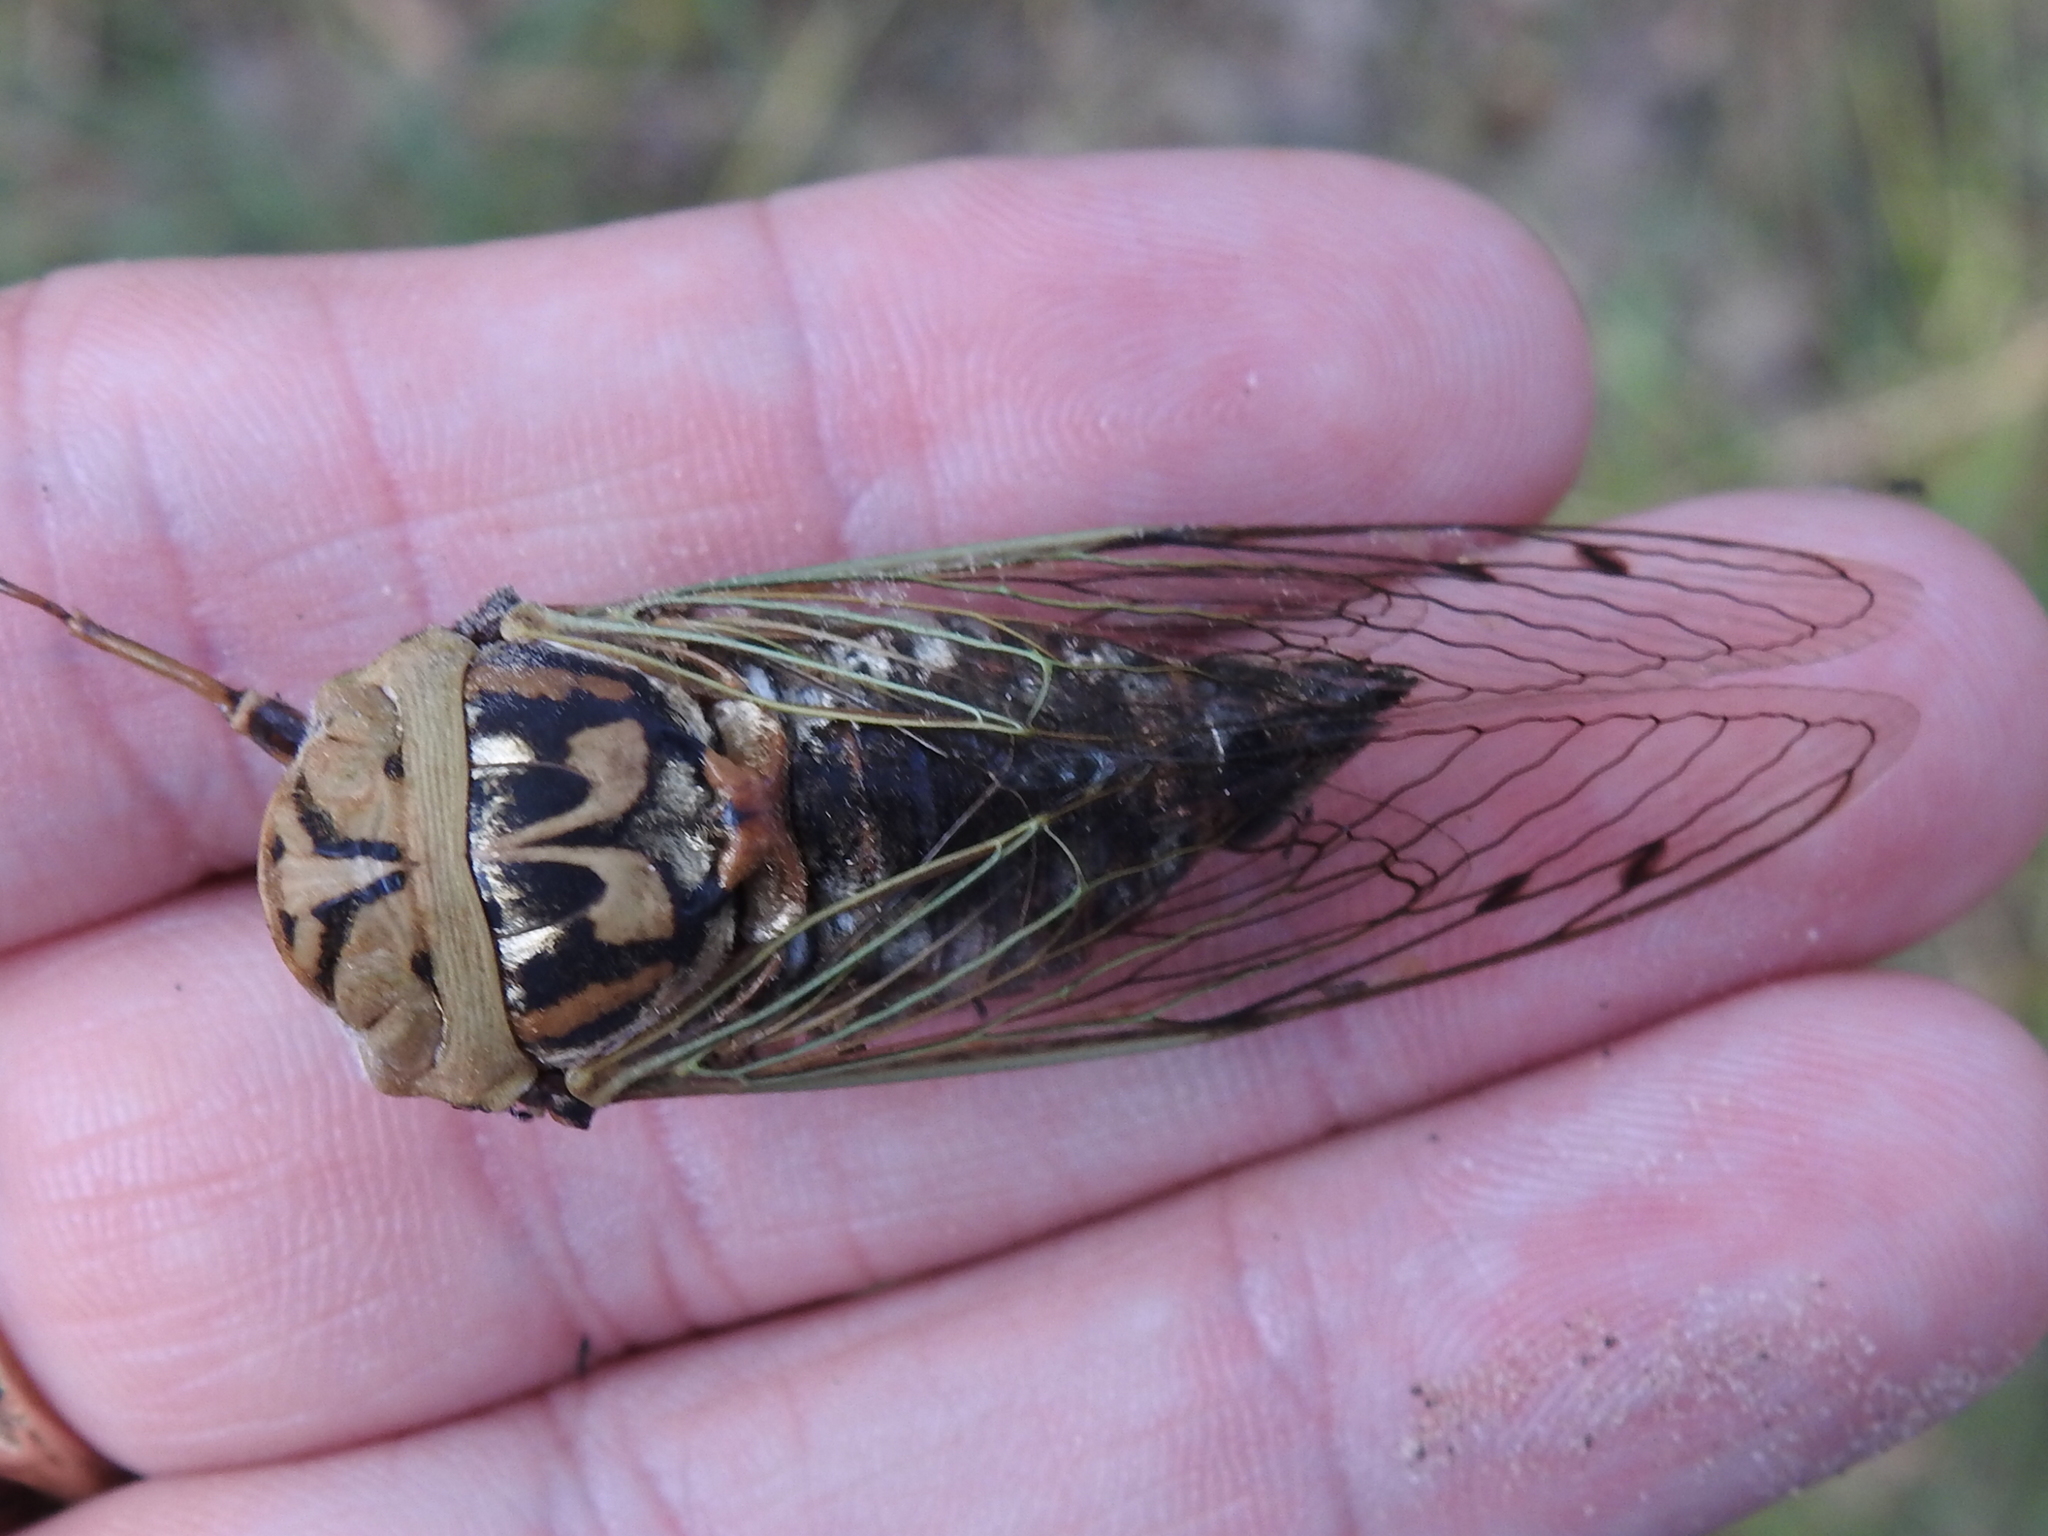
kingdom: Animalia
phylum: Arthropoda
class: Insecta
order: Hemiptera
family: Cicadidae
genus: Megatibicen
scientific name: Megatibicen resh
